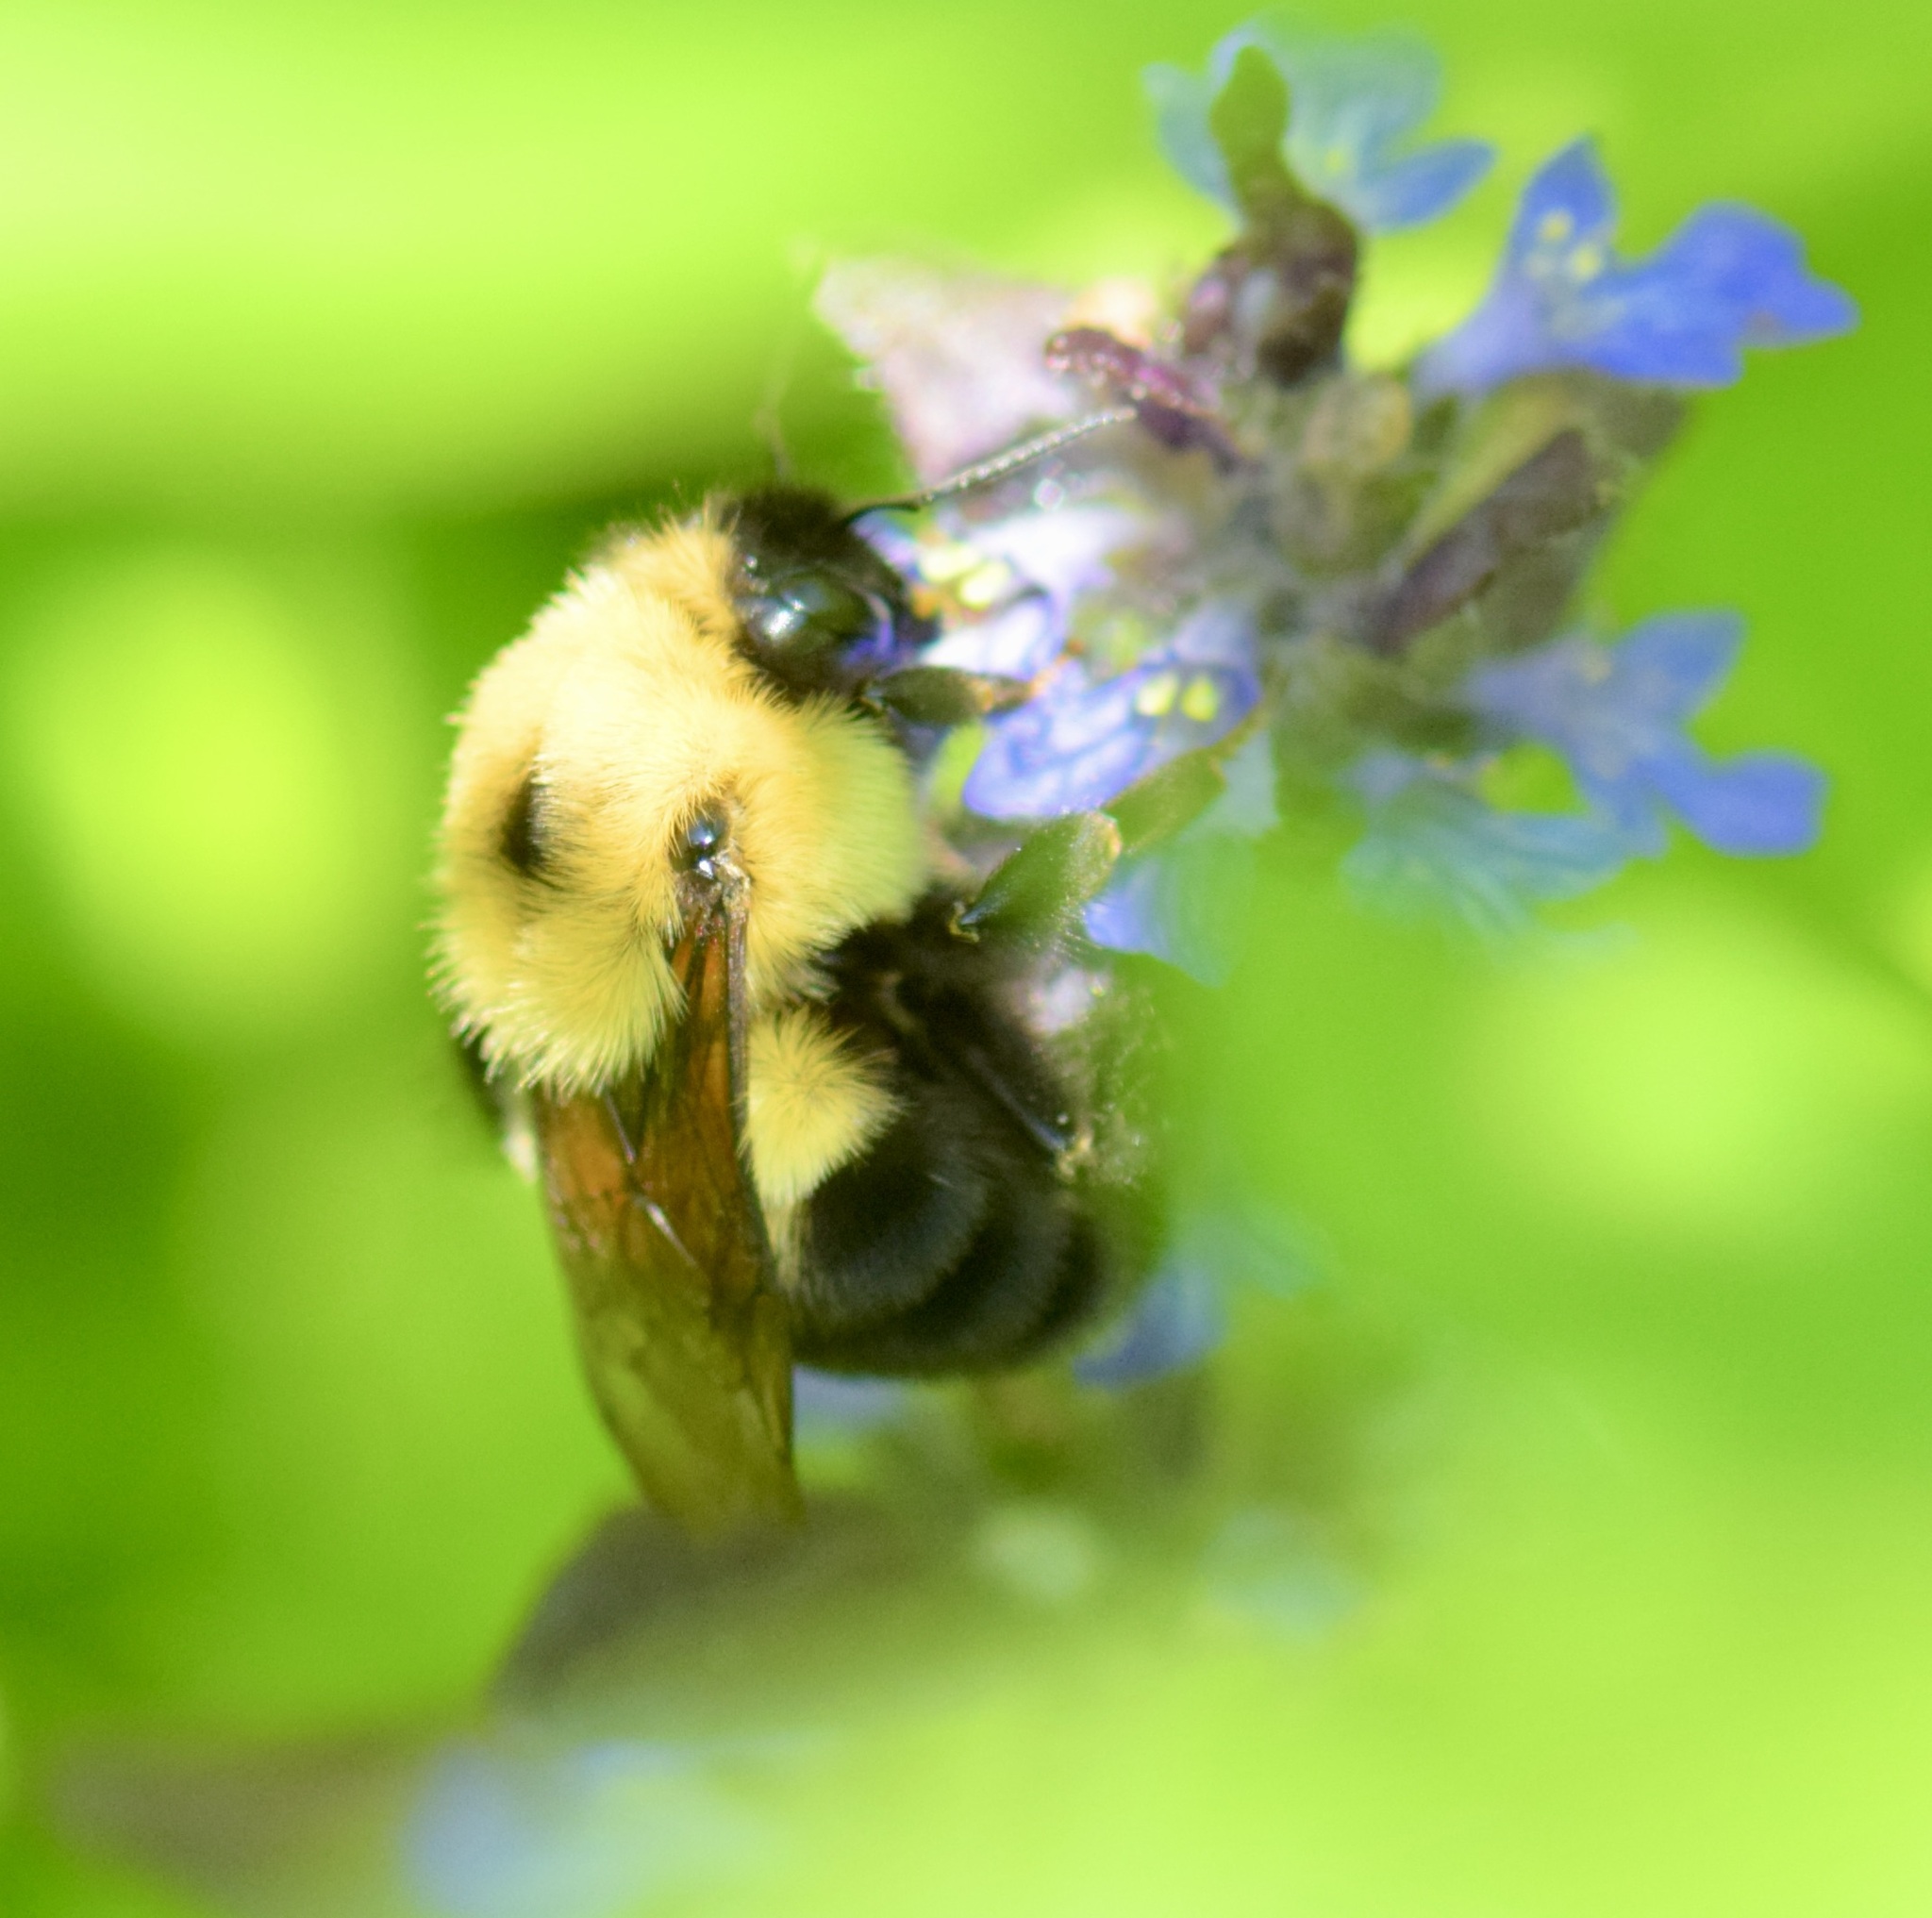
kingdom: Animalia
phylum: Arthropoda
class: Insecta
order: Hymenoptera
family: Apidae
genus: Bombus
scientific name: Bombus bimaculatus
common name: Two-spotted bumble bee
